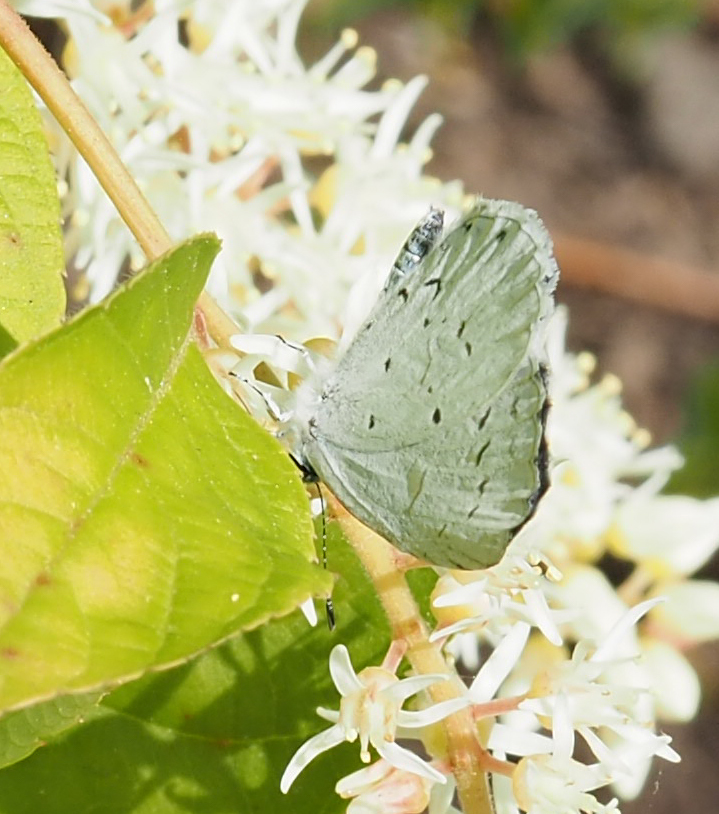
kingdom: Animalia
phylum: Arthropoda
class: Insecta
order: Lepidoptera
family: Lycaenidae
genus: Cyaniris
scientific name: Cyaniris neglecta
